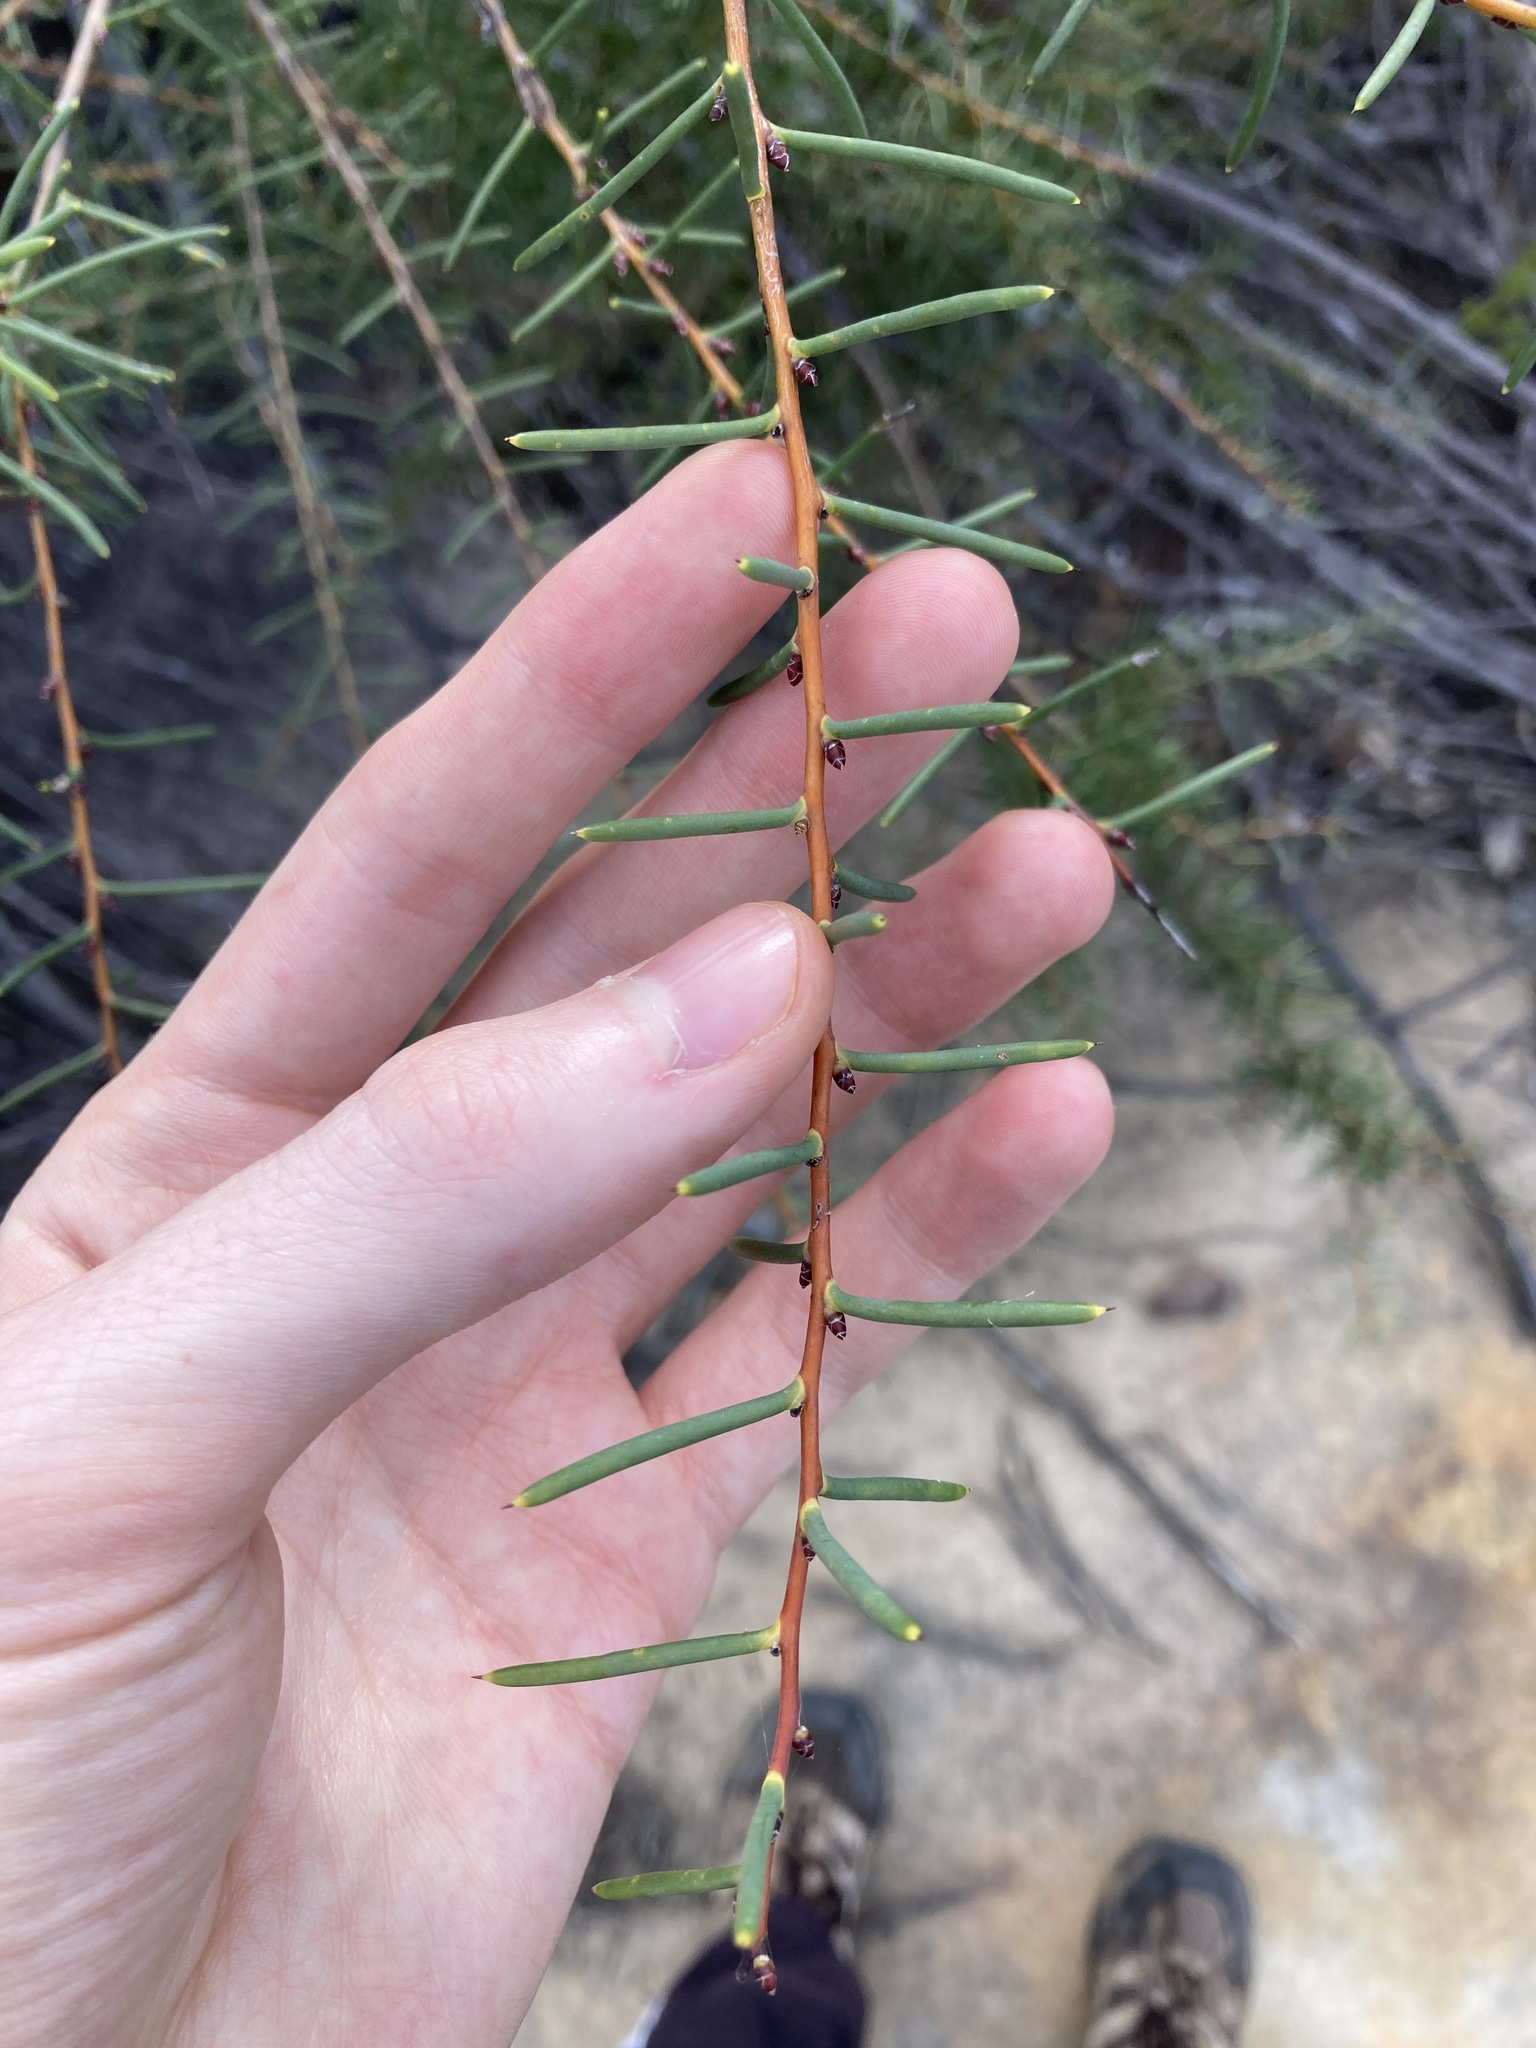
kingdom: Plantae
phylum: Tracheophyta
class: Magnoliopsida
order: Proteales
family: Proteaceae
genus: Hakea
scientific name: Hakea teretifolia
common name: Dagger hakea
